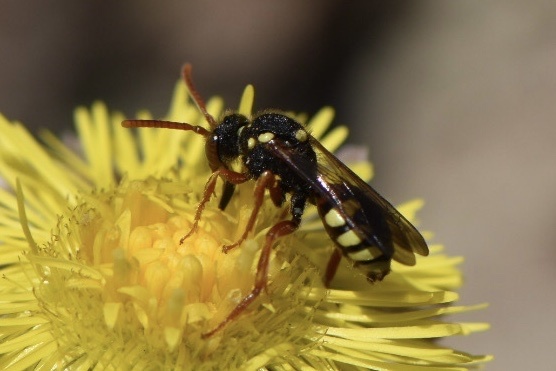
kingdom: Animalia
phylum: Arthropoda
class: Insecta
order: Hymenoptera
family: Apidae
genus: Nomada
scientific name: Nomada fucata
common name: Painted nomad bee
